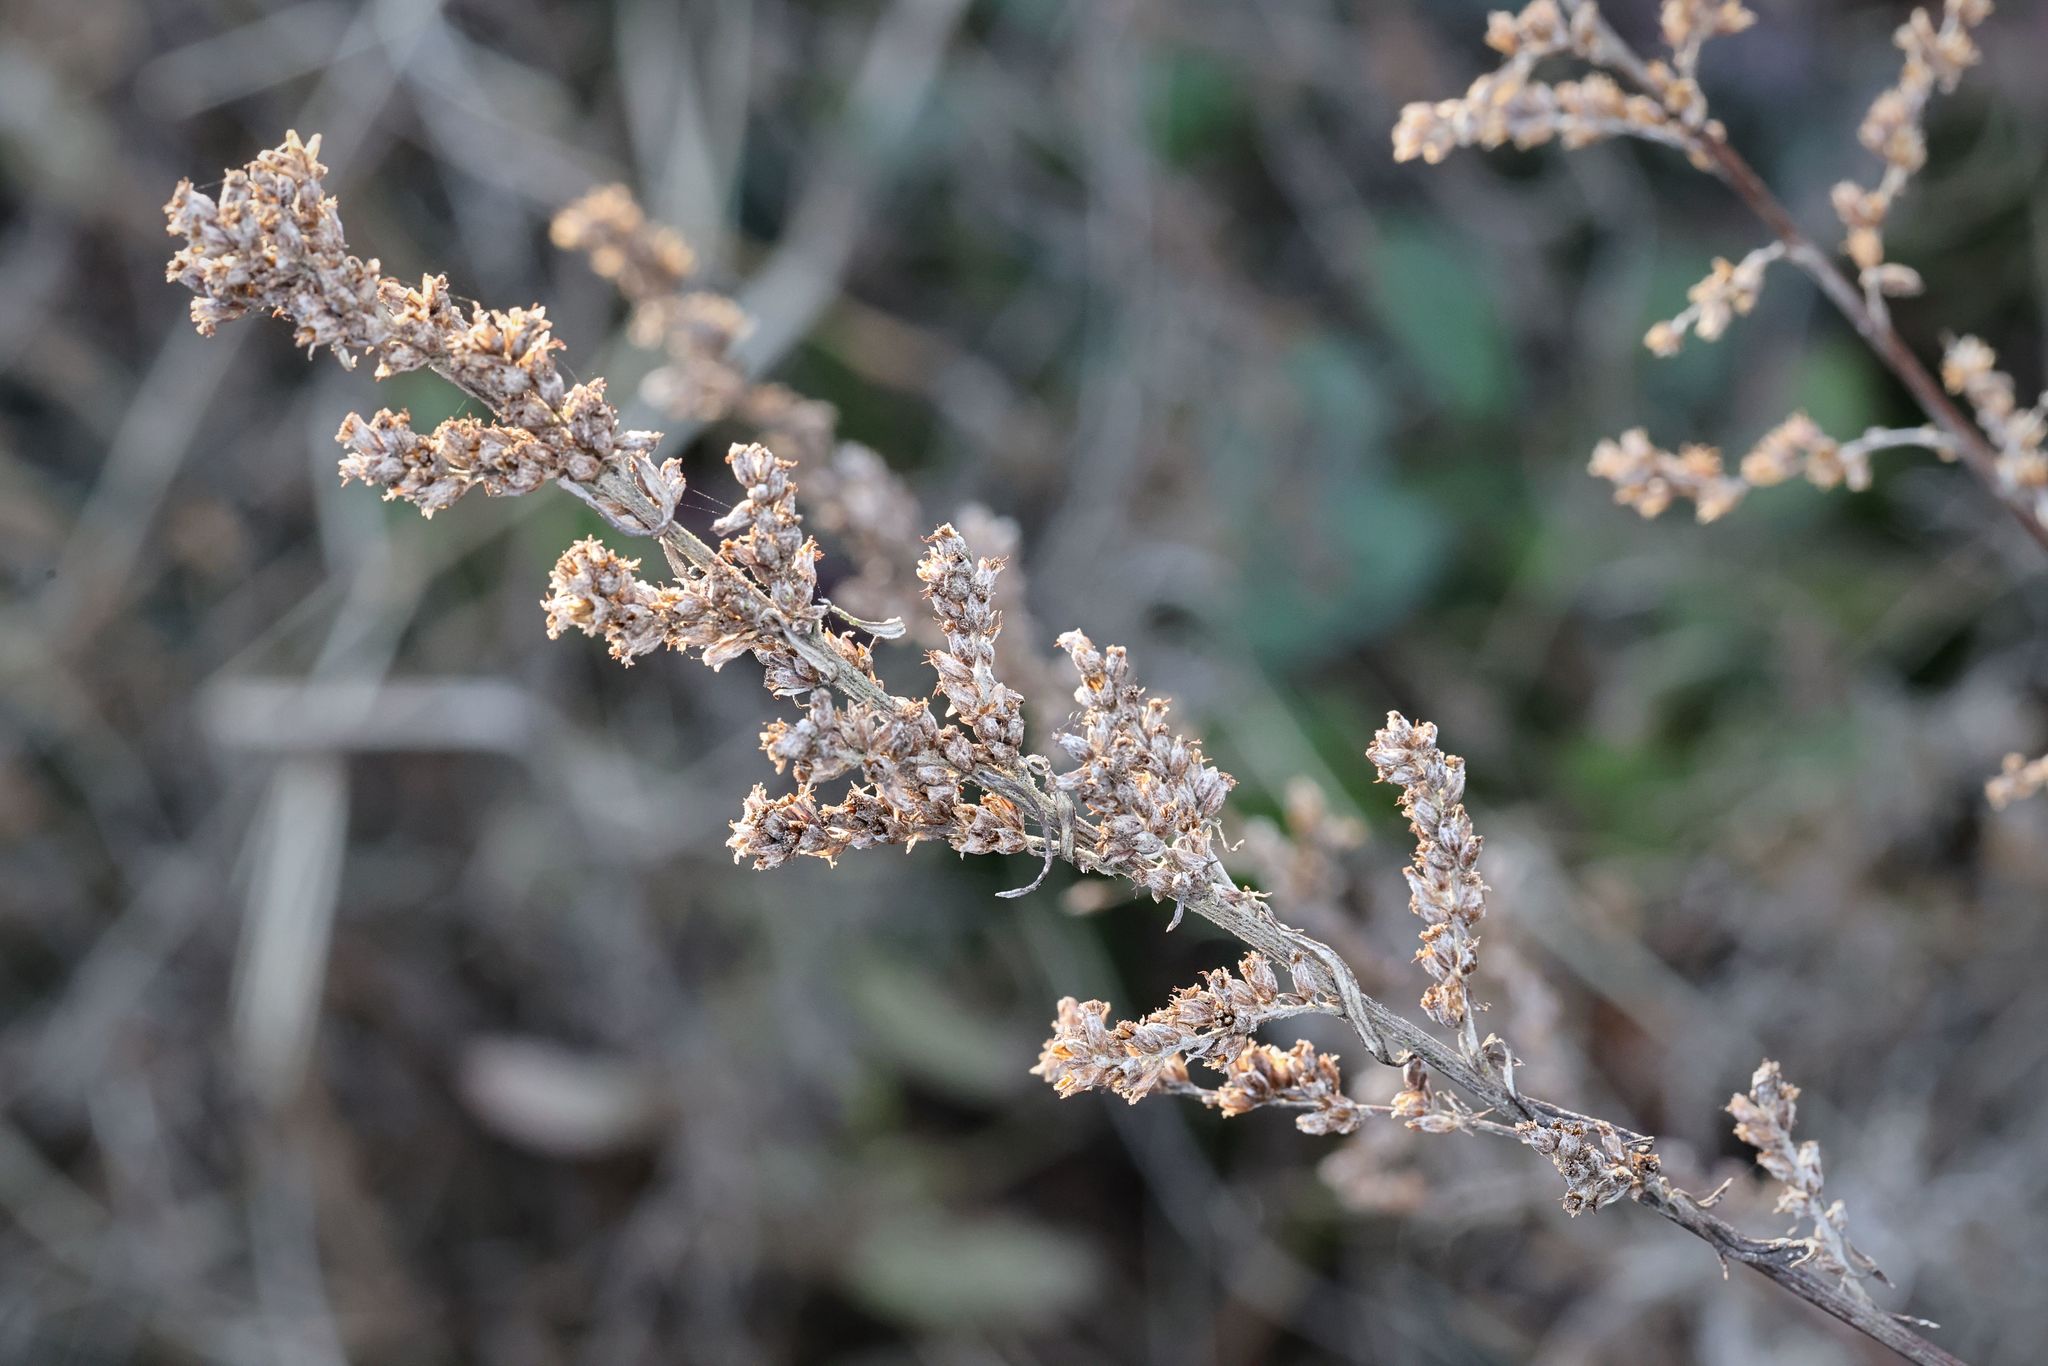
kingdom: Plantae
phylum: Tracheophyta
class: Magnoliopsida
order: Asterales
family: Asteraceae
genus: Artemisia
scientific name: Artemisia vulgaris
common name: Mugwort
